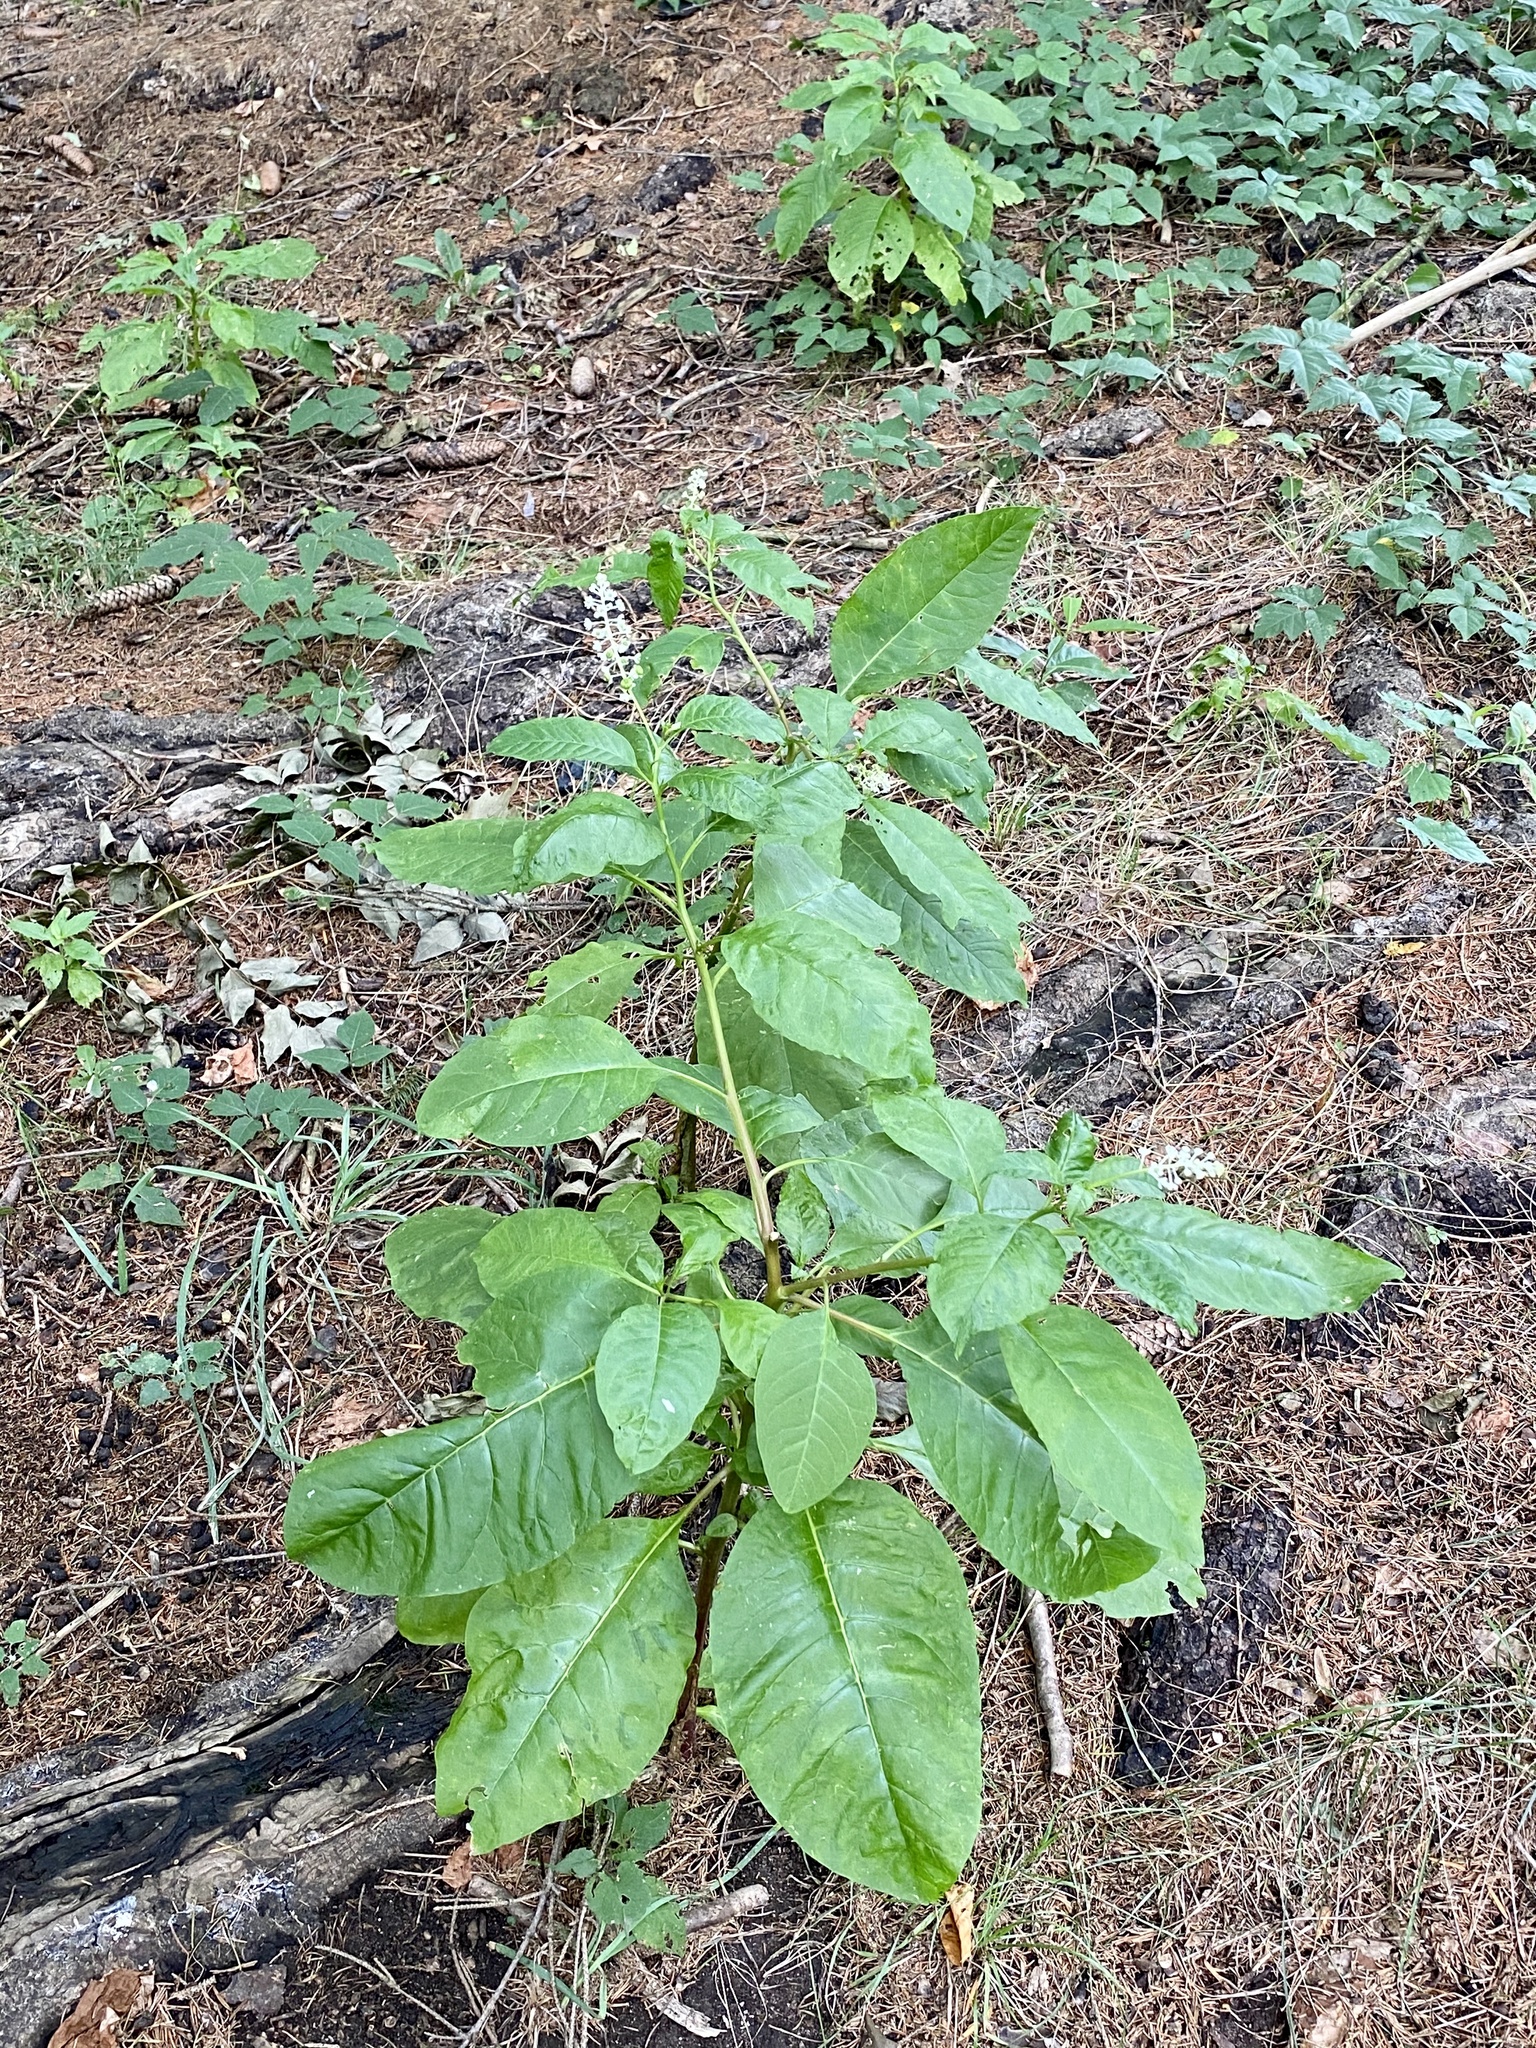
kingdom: Plantae
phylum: Tracheophyta
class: Magnoliopsida
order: Caryophyllales
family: Phytolaccaceae
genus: Phytolacca
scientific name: Phytolacca americana
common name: American pokeweed
